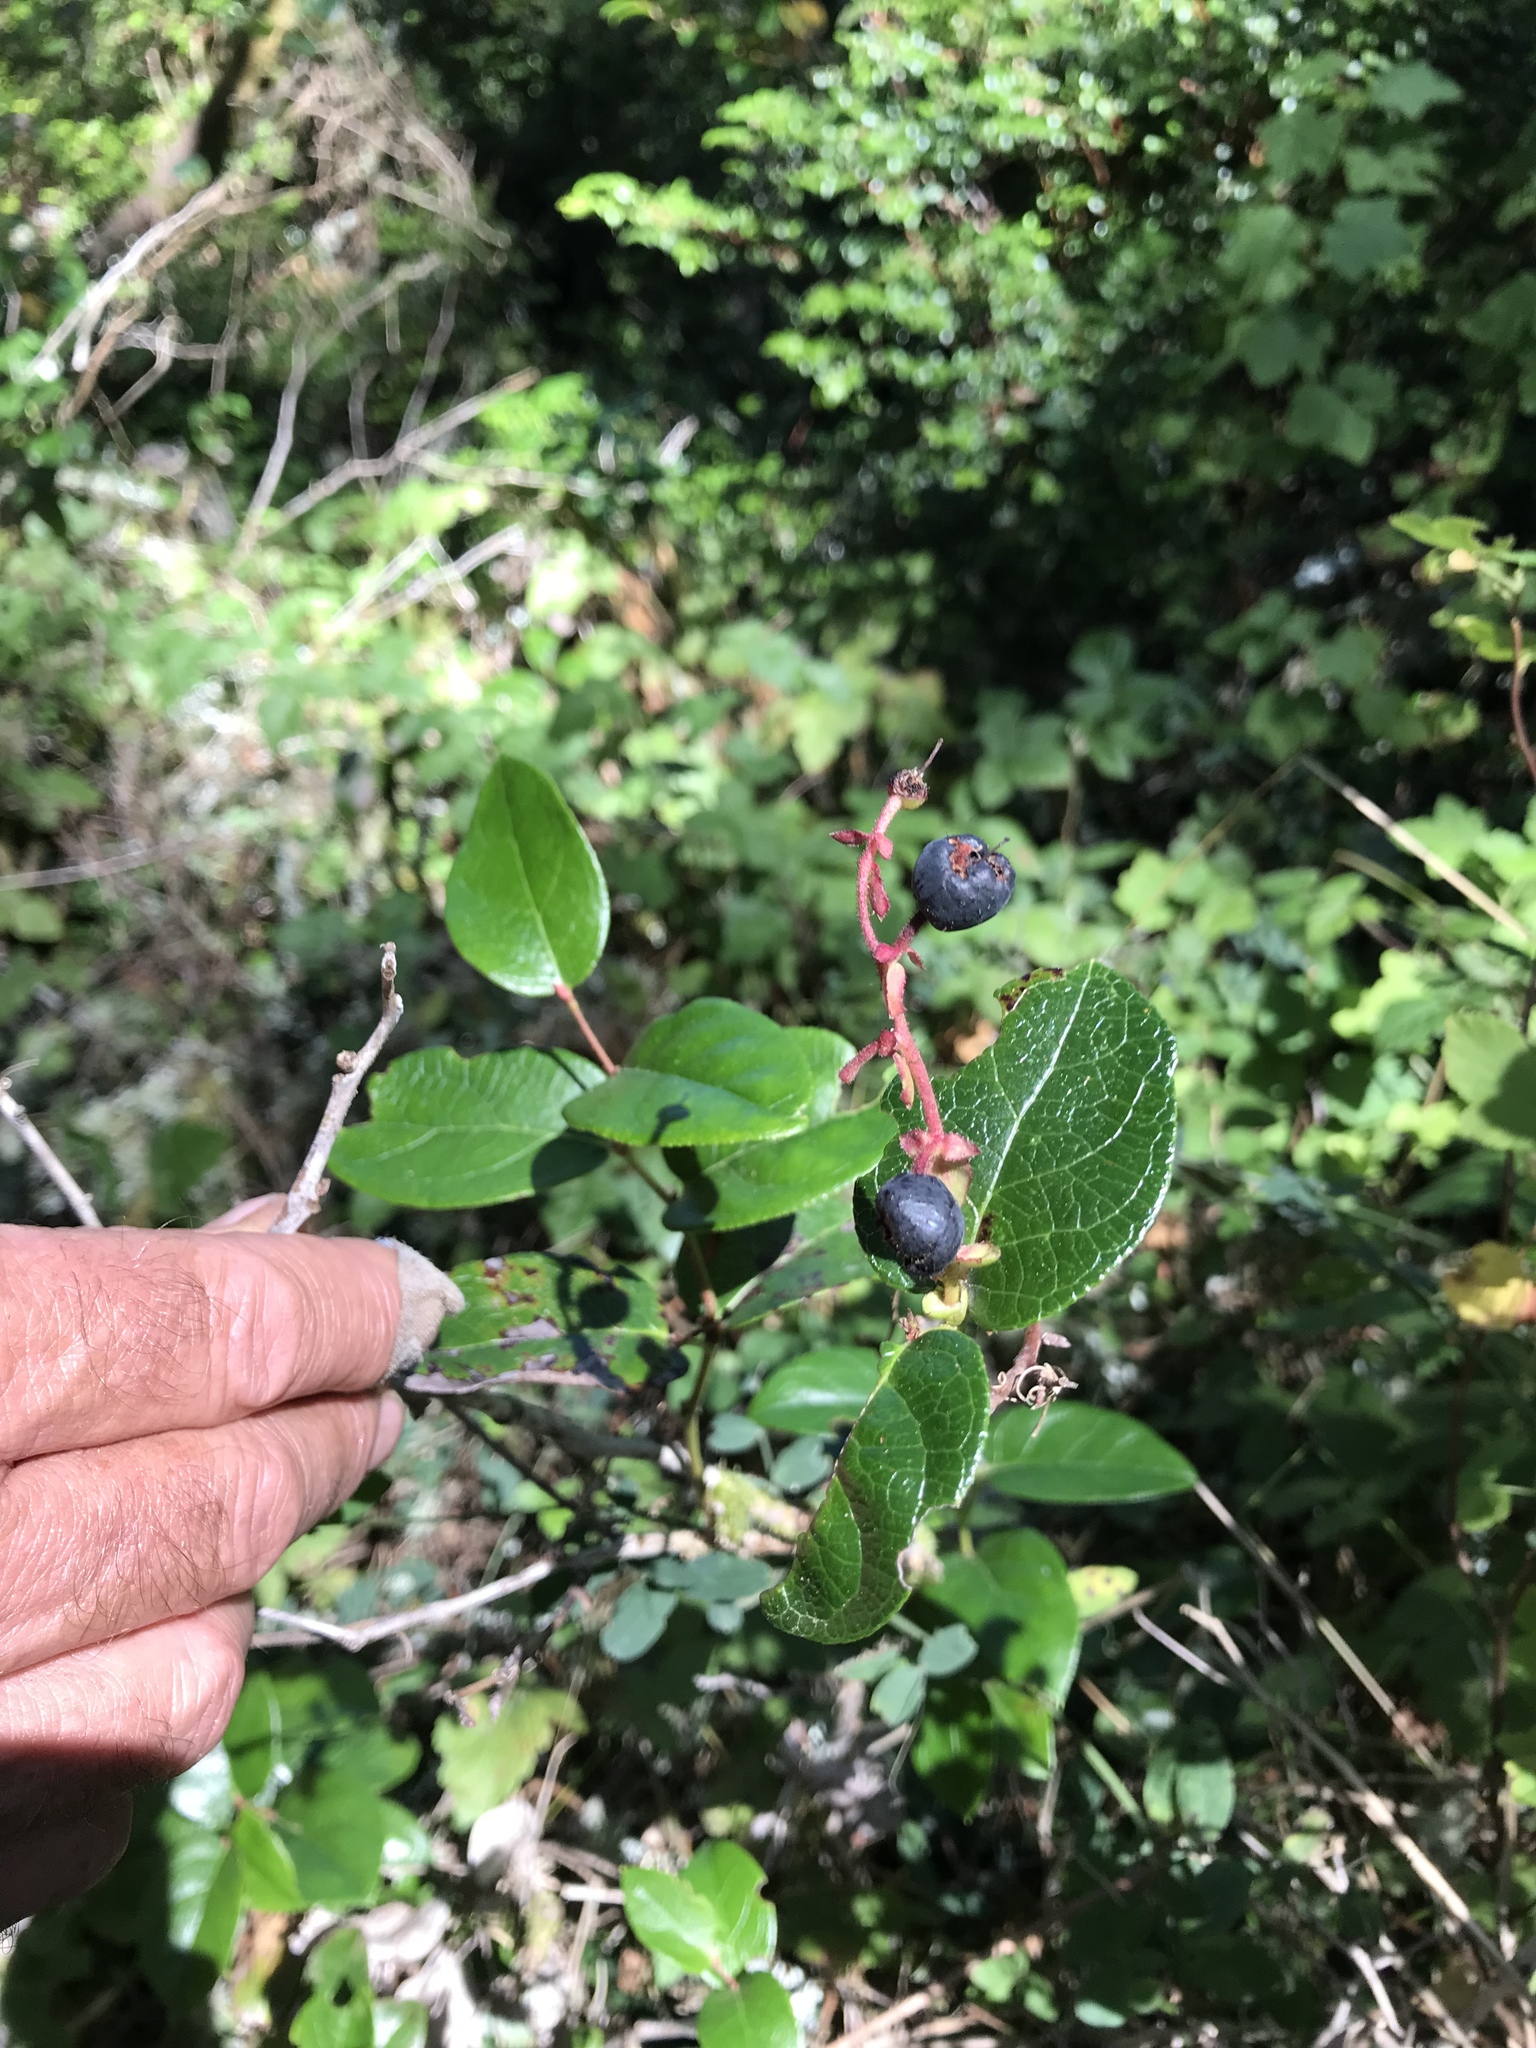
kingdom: Plantae
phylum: Tracheophyta
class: Magnoliopsida
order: Ericales
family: Ericaceae
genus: Gaultheria
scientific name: Gaultheria shallon
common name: Shallon
